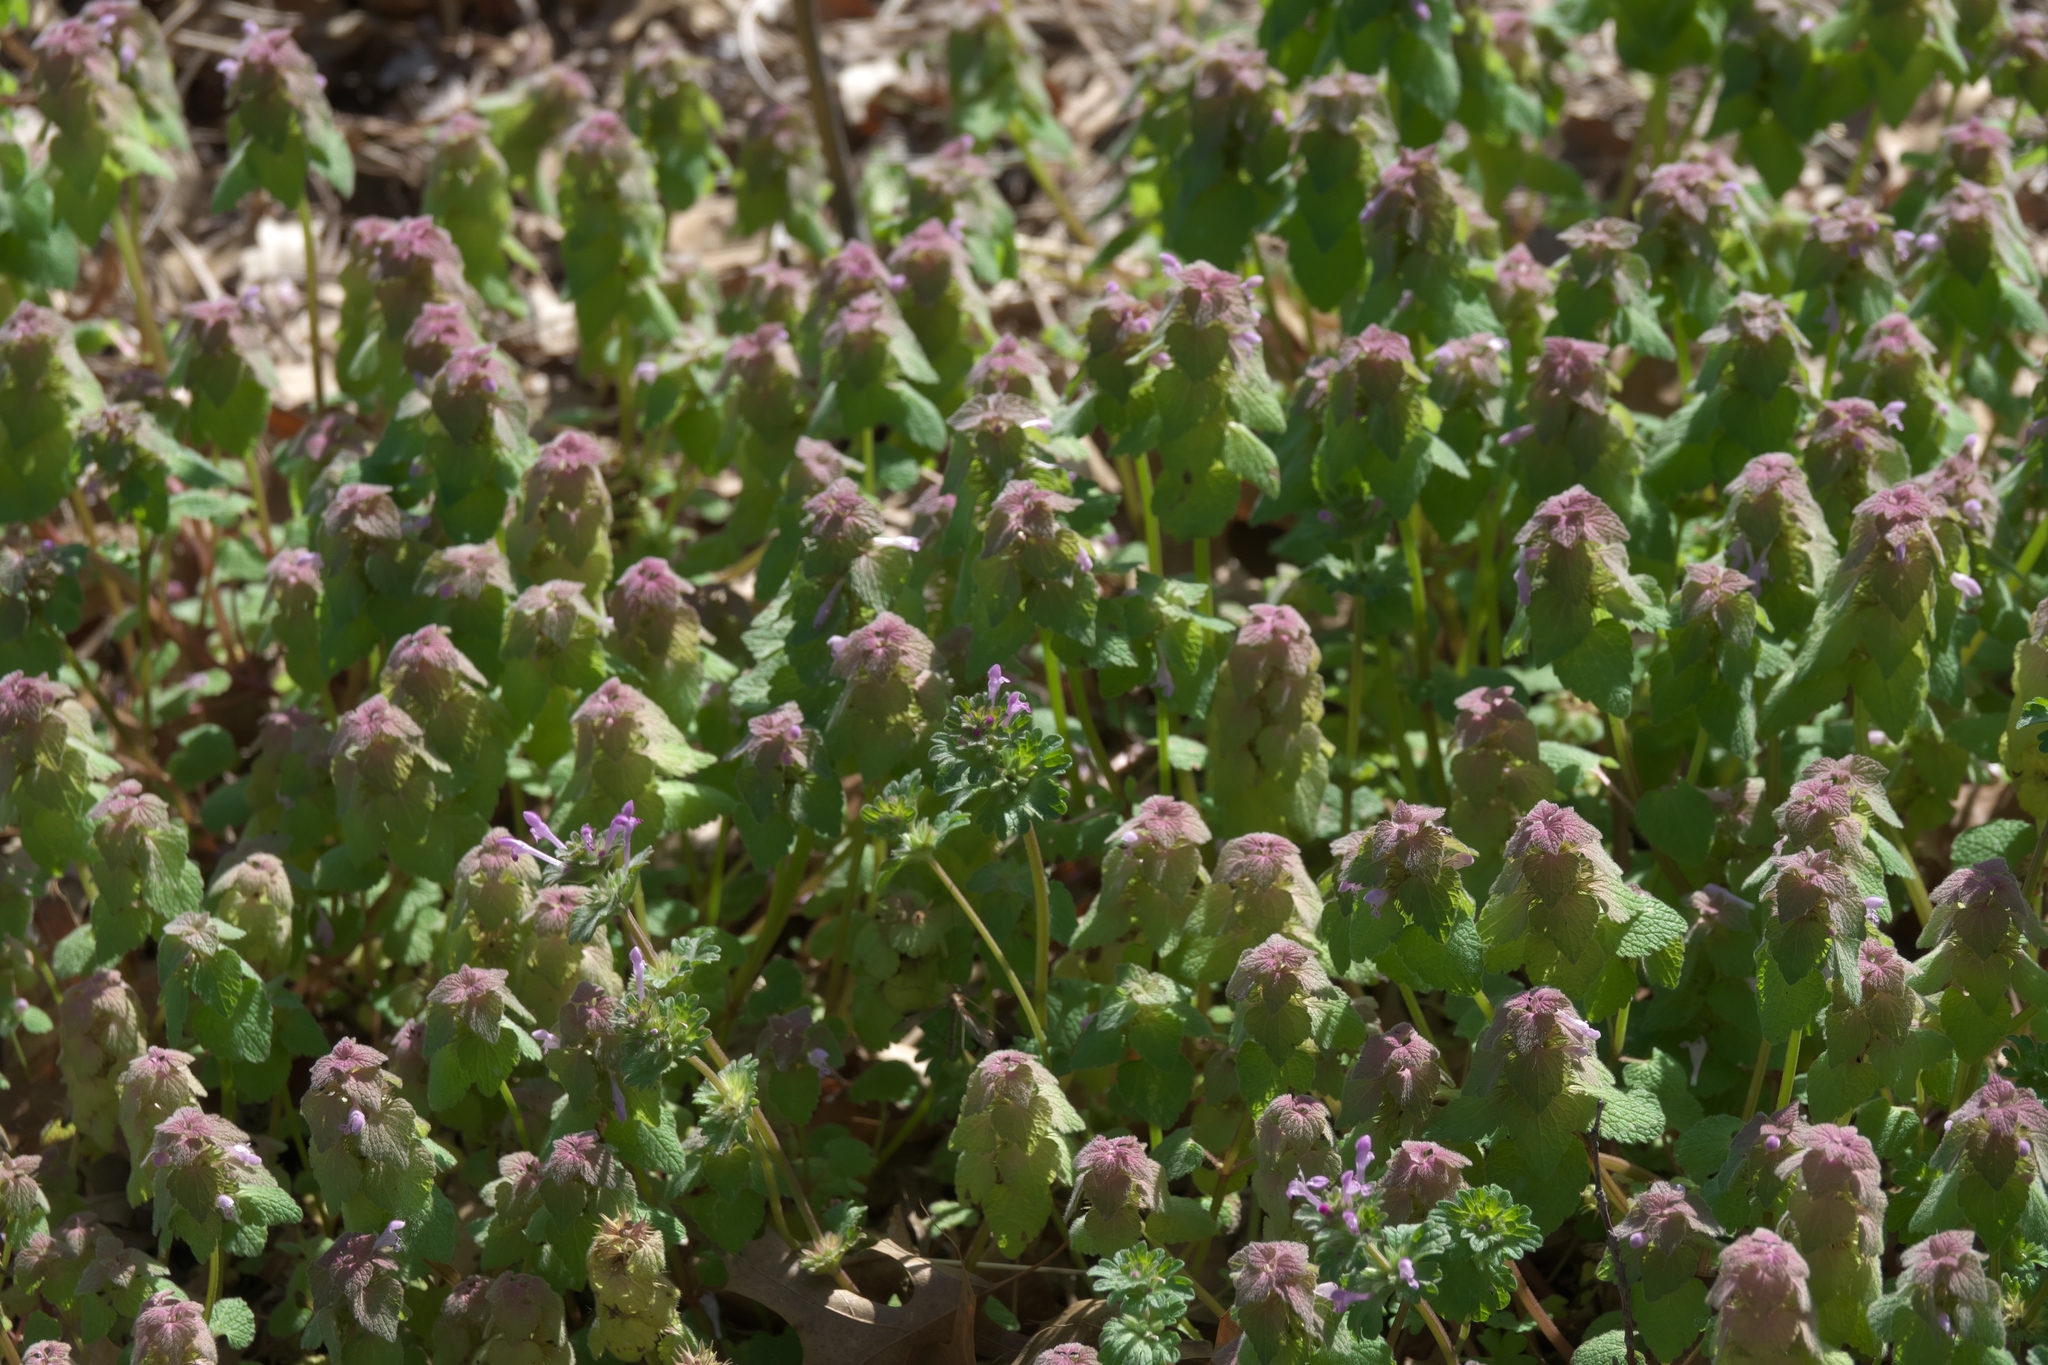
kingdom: Plantae
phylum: Tracheophyta
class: Magnoliopsida
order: Lamiales
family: Lamiaceae
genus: Lamium
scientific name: Lamium purpureum
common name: Red dead-nettle
